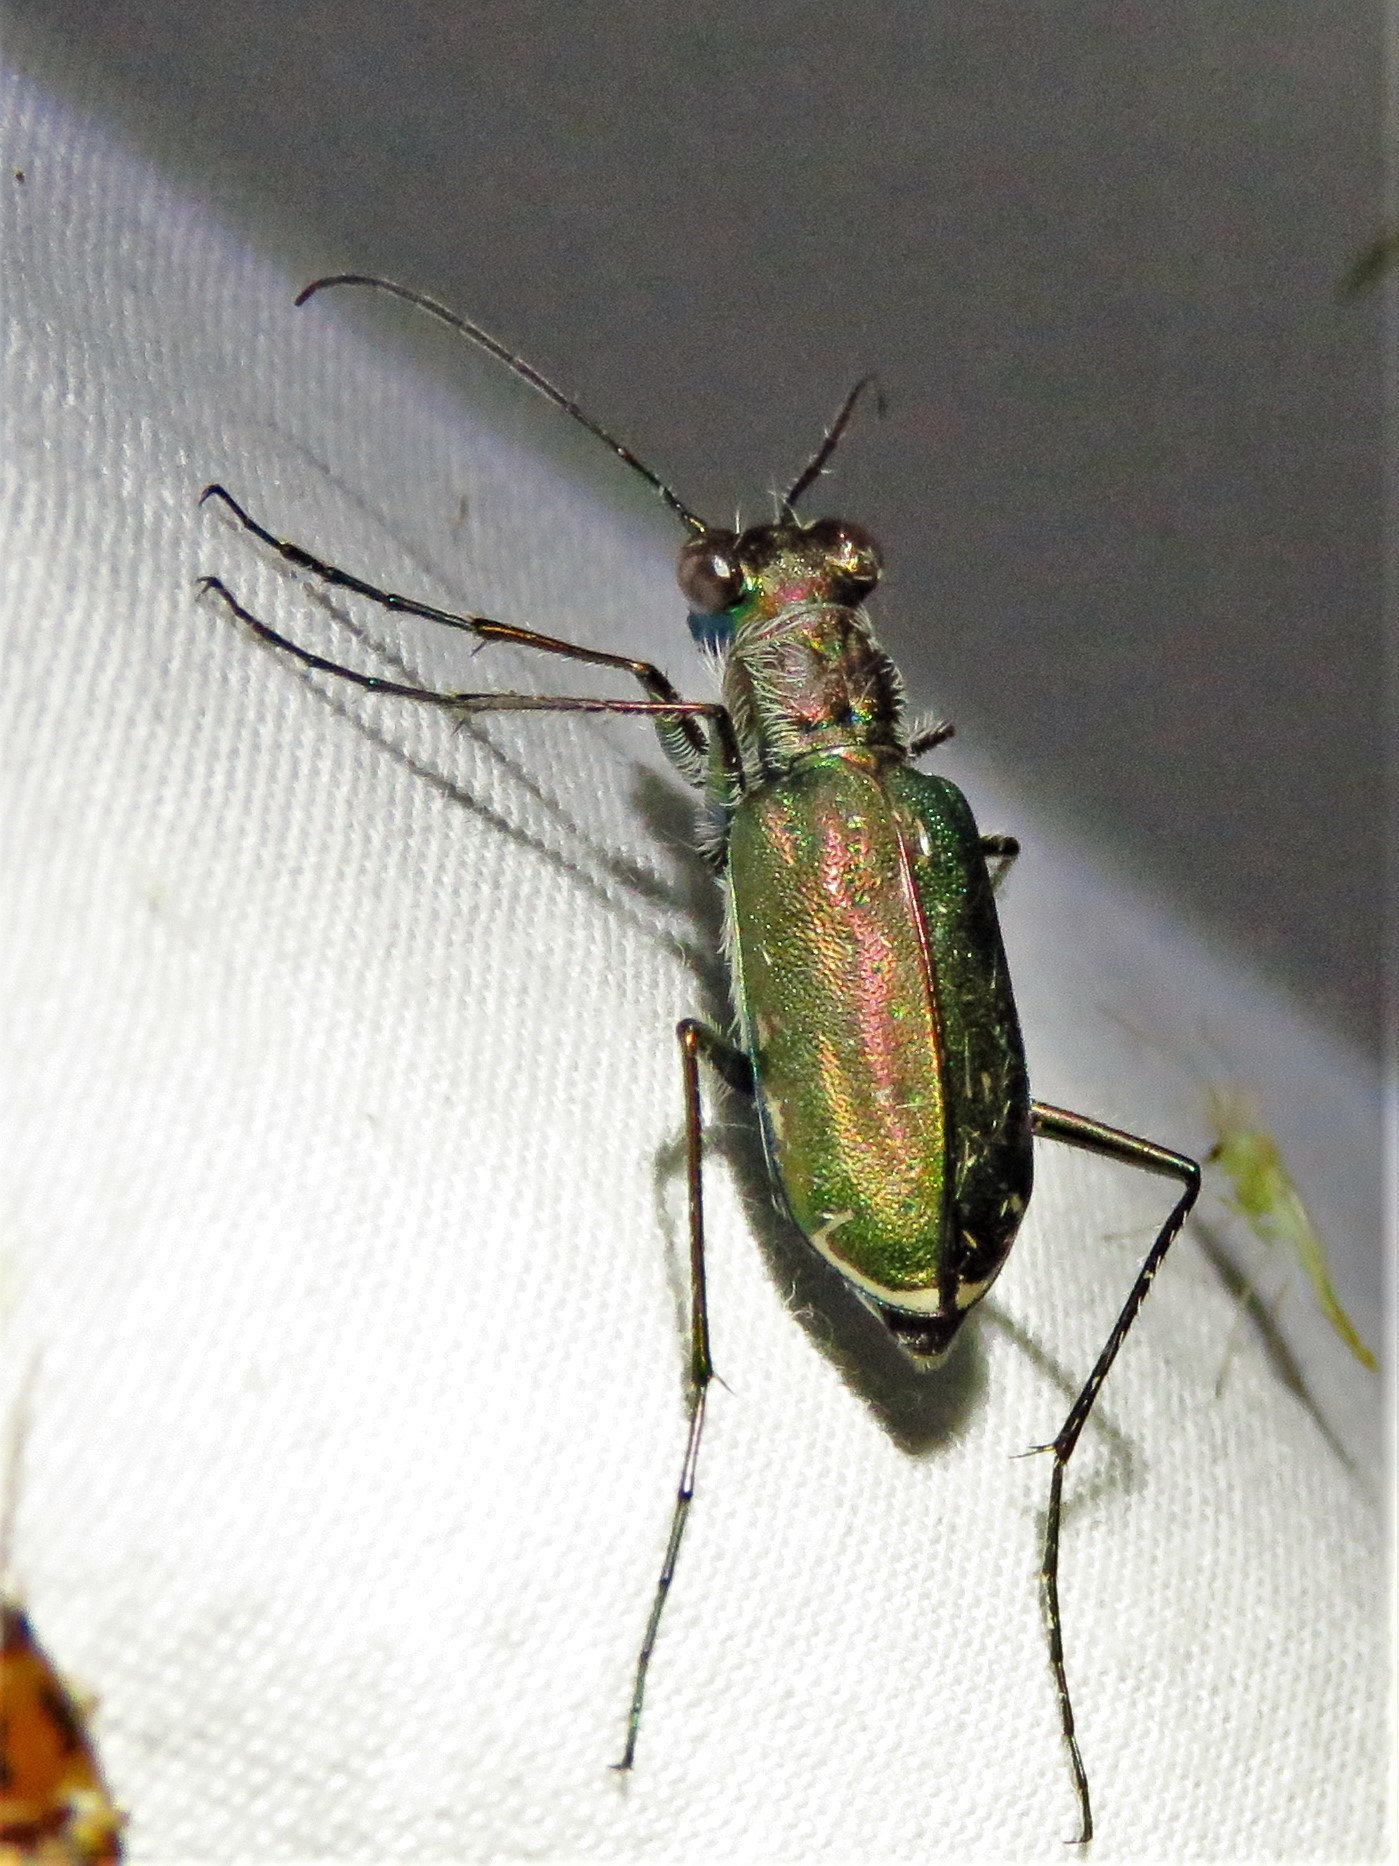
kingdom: Animalia
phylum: Arthropoda
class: Insecta
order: Coleoptera
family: Carabidae
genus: Cicindela
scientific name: Cicindela punctulata
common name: Punctured tiger beetle
